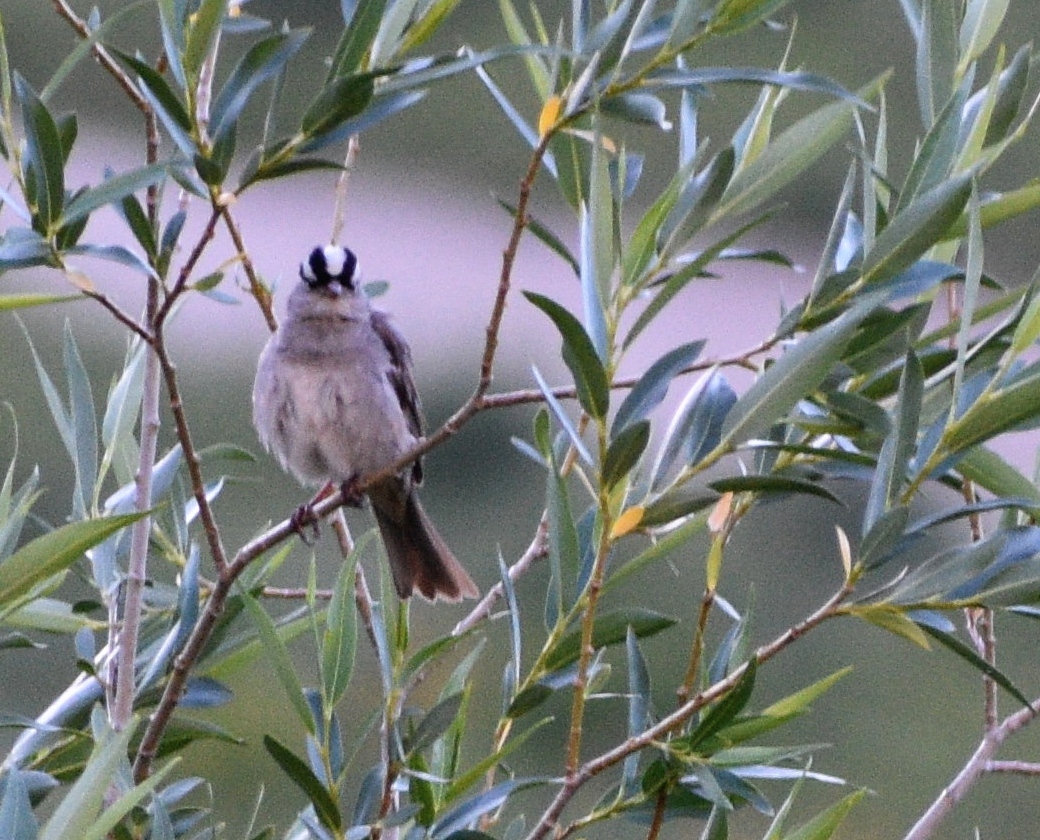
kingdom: Animalia
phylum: Chordata
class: Aves
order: Passeriformes
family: Passerellidae
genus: Zonotrichia
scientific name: Zonotrichia leucophrys
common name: White-crowned sparrow
